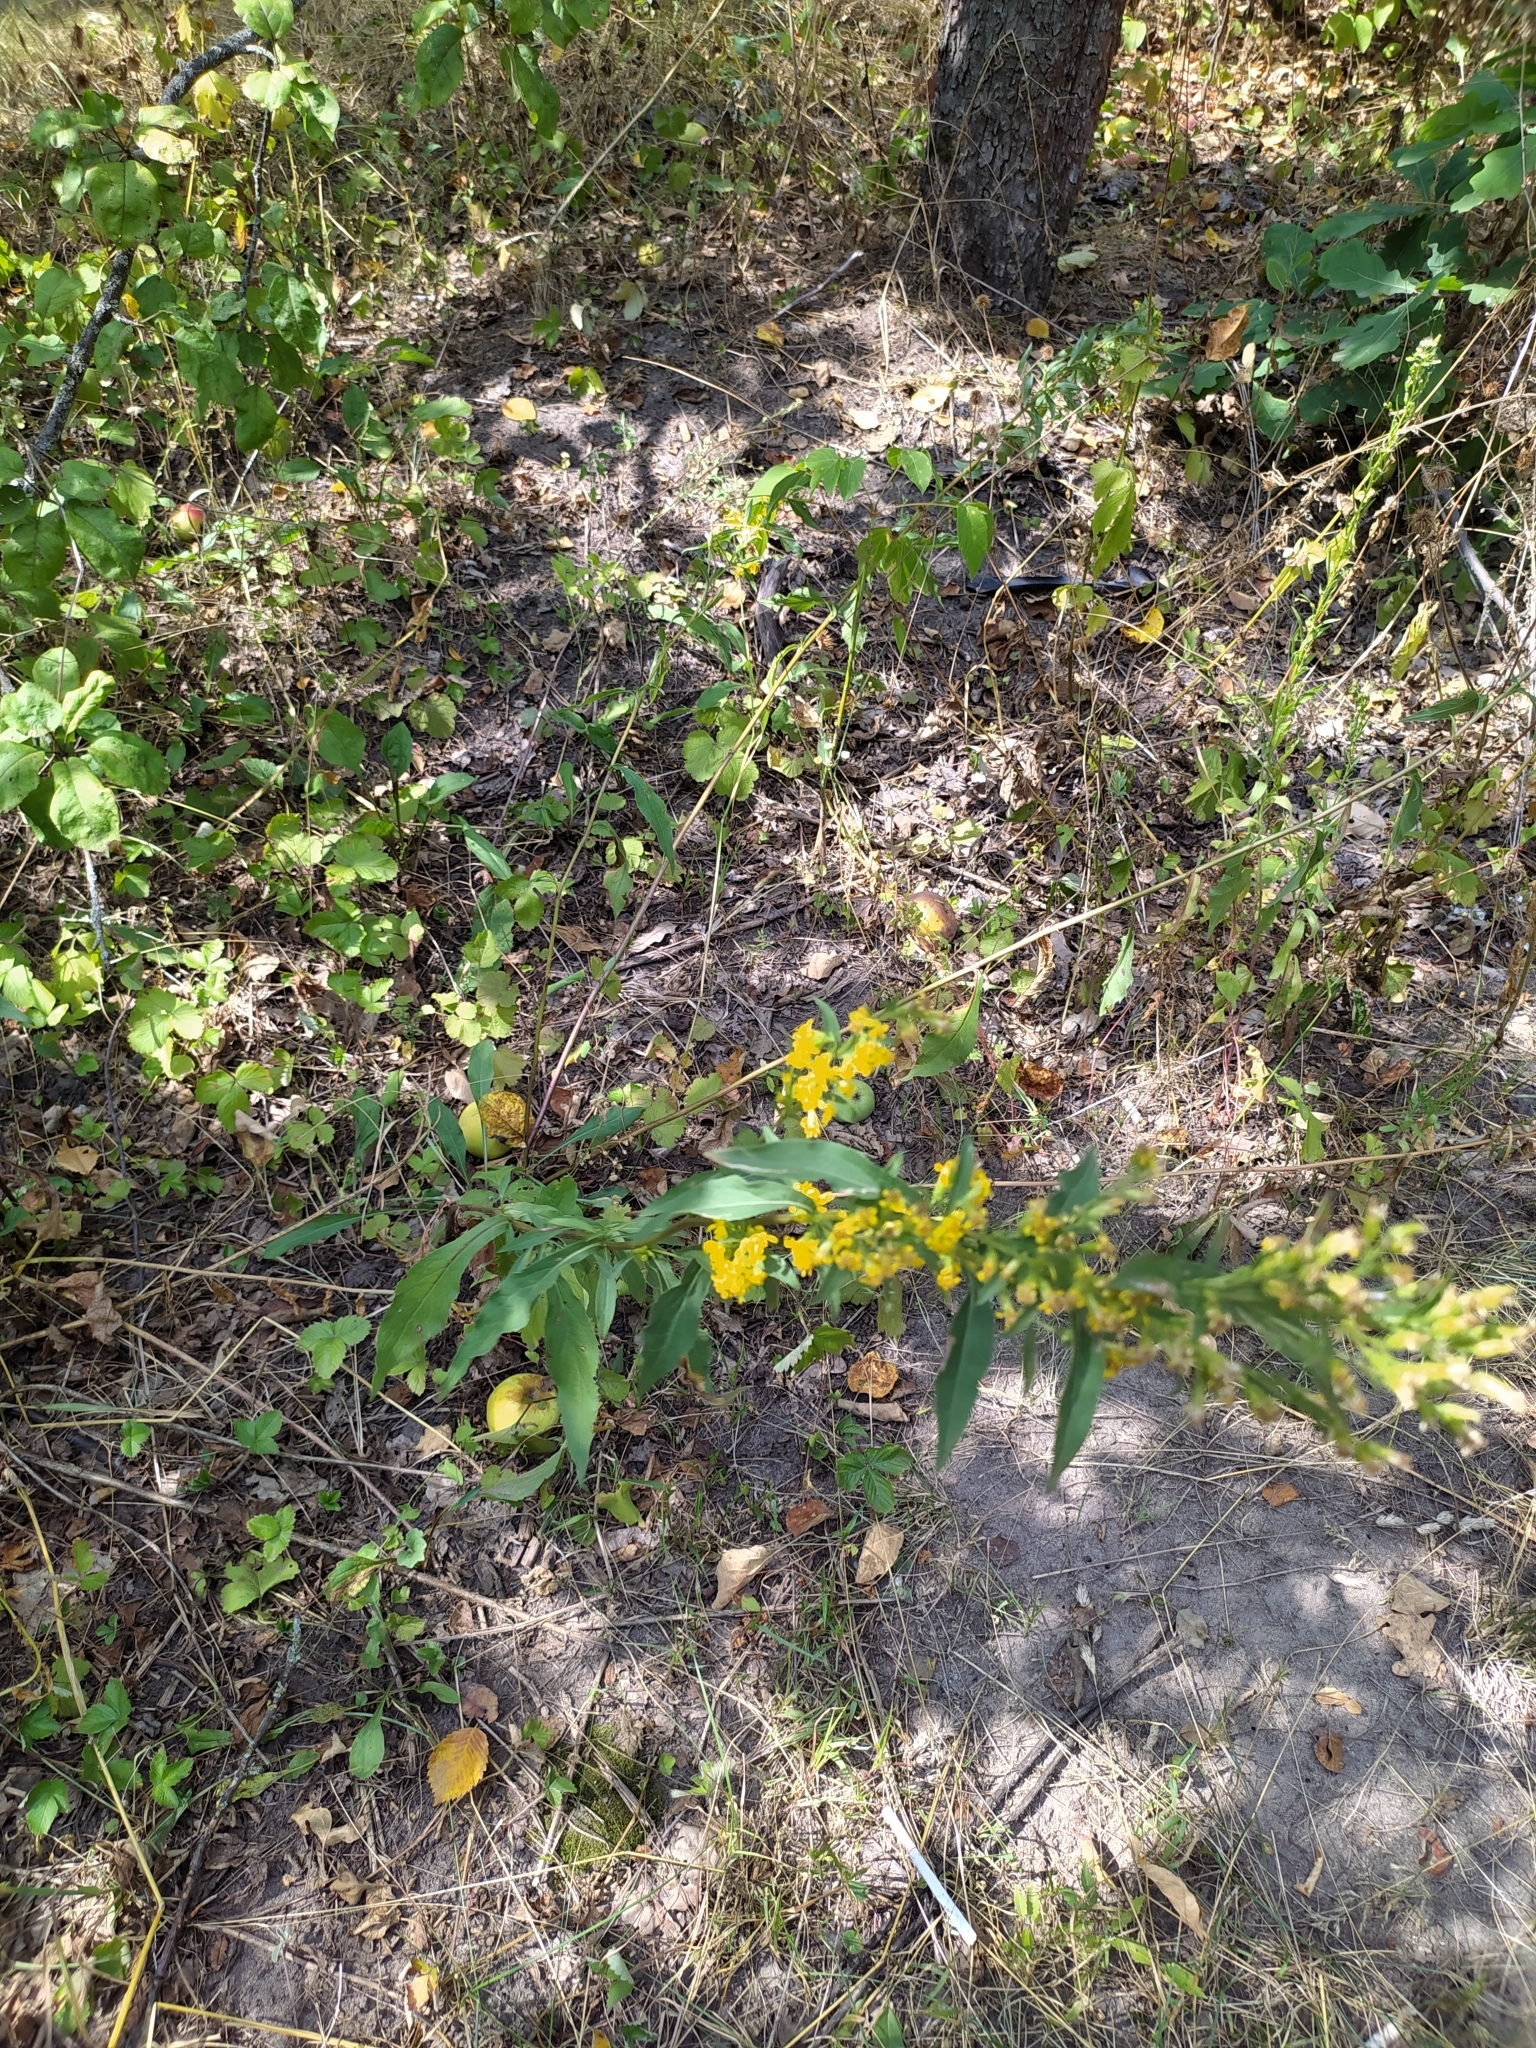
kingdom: Plantae
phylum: Tracheophyta
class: Magnoliopsida
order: Asterales
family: Asteraceae
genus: Solidago
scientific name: Solidago virgaurea
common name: Goldenrod
